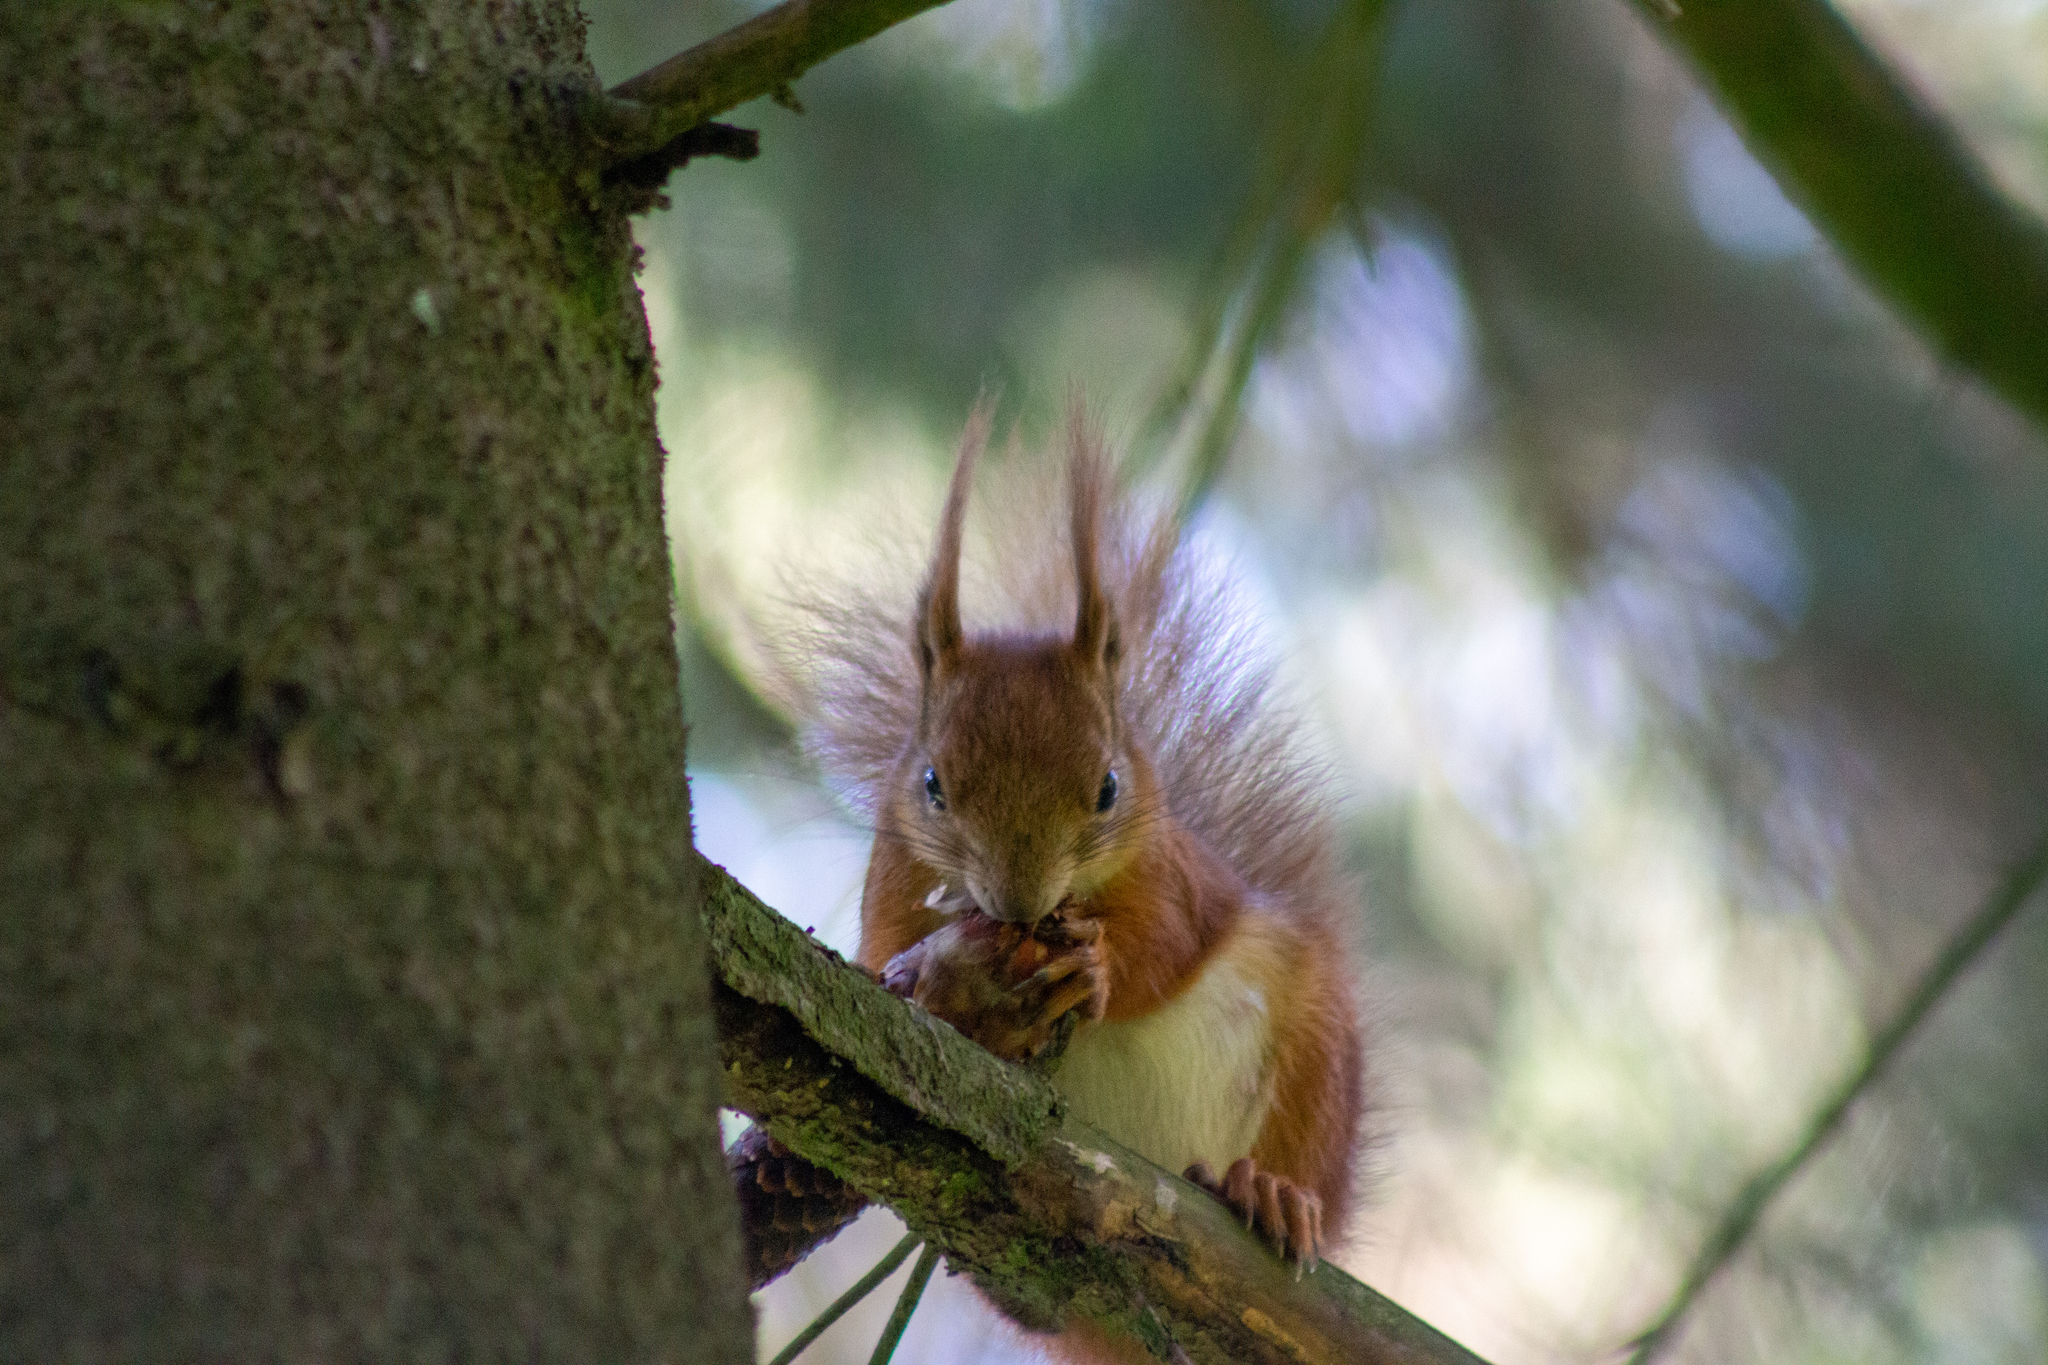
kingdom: Animalia
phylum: Chordata
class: Mammalia
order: Rodentia
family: Sciuridae
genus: Sciurus
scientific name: Sciurus vulgaris
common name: Eurasian red squirrel
